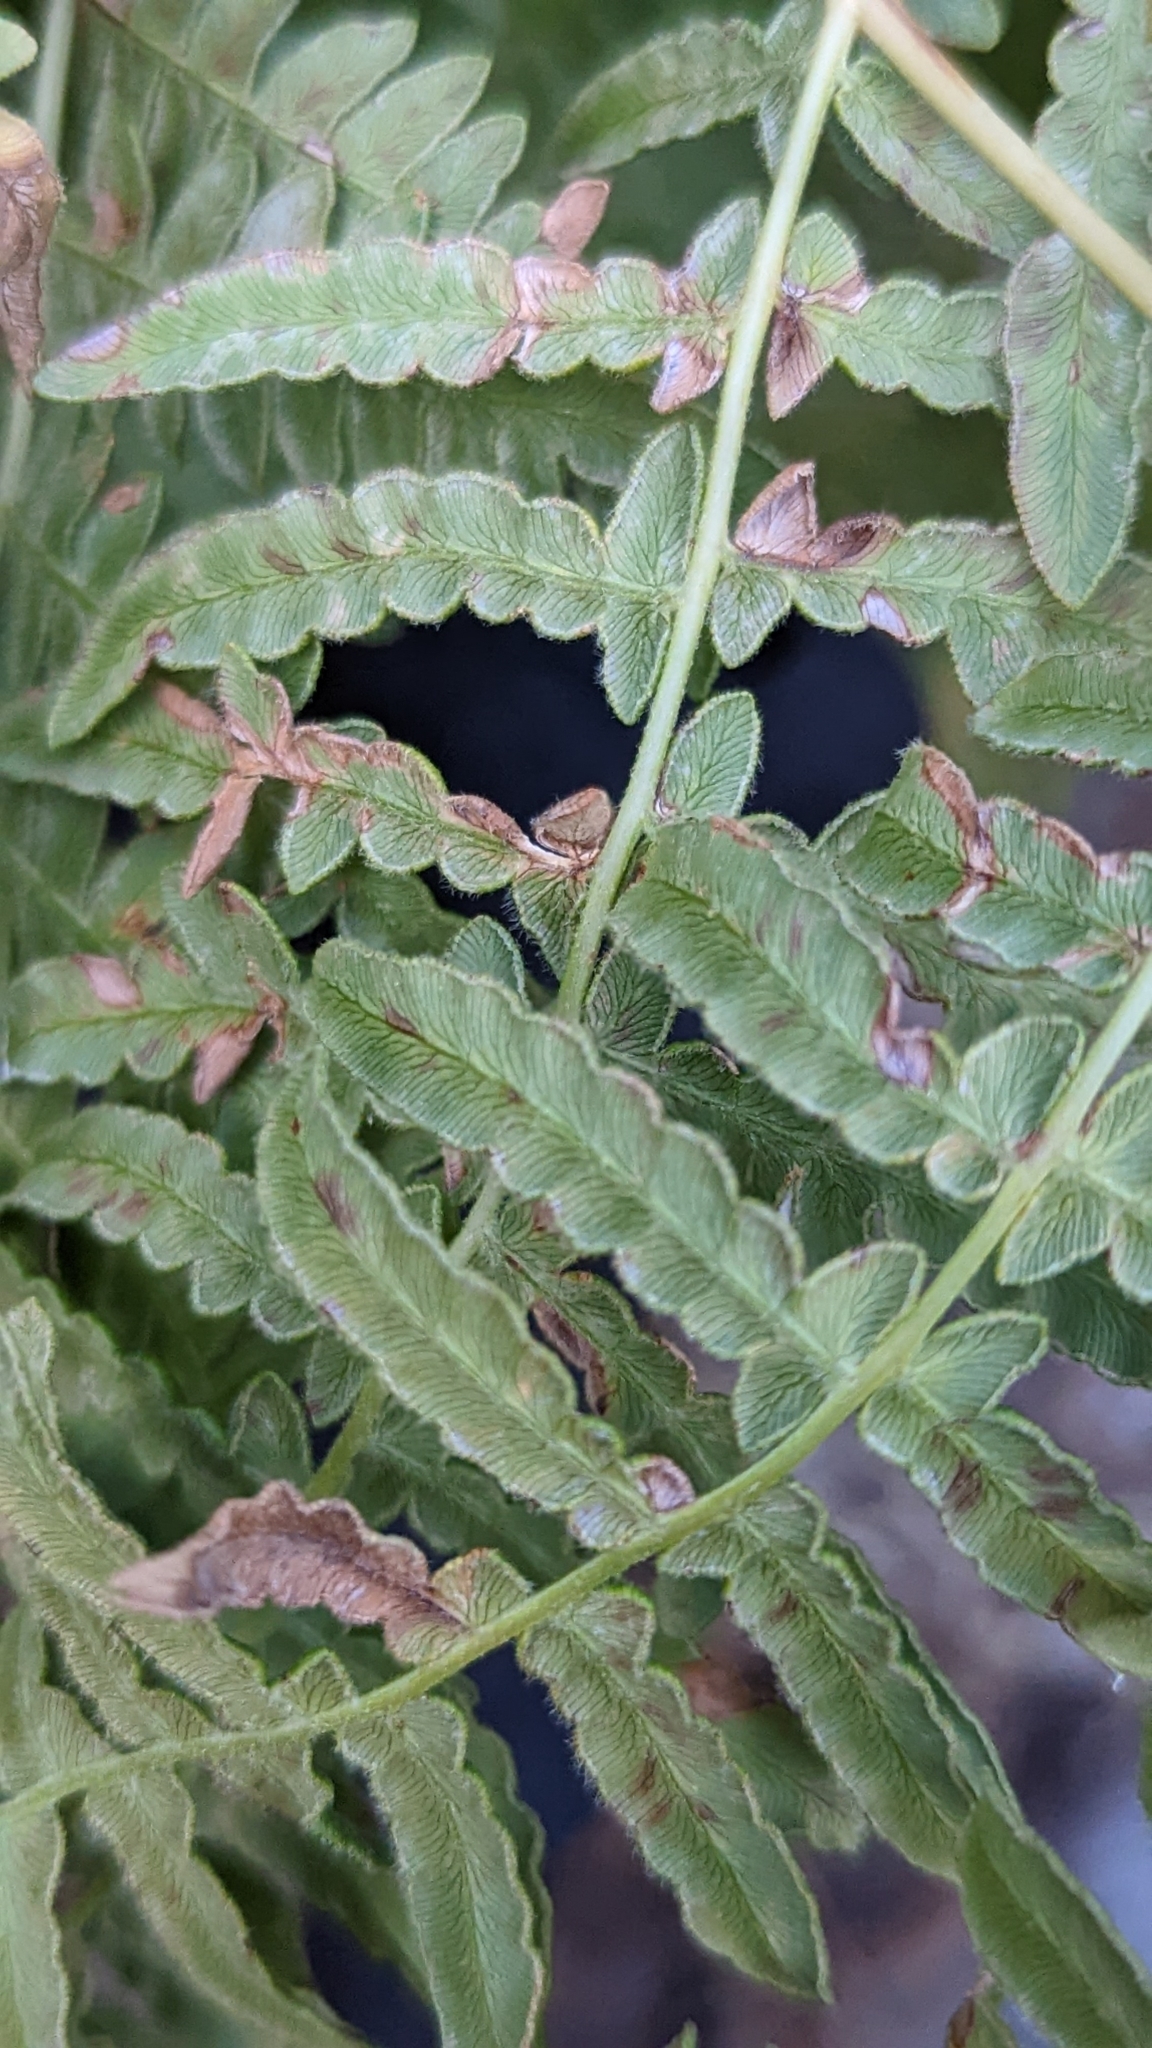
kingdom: Plantae
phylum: Tracheophyta
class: Polypodiopsida
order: Polypodiales
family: Dennstaedtiaceae
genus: Pteridium
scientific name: Pteridium aquilinum
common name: Bracken
